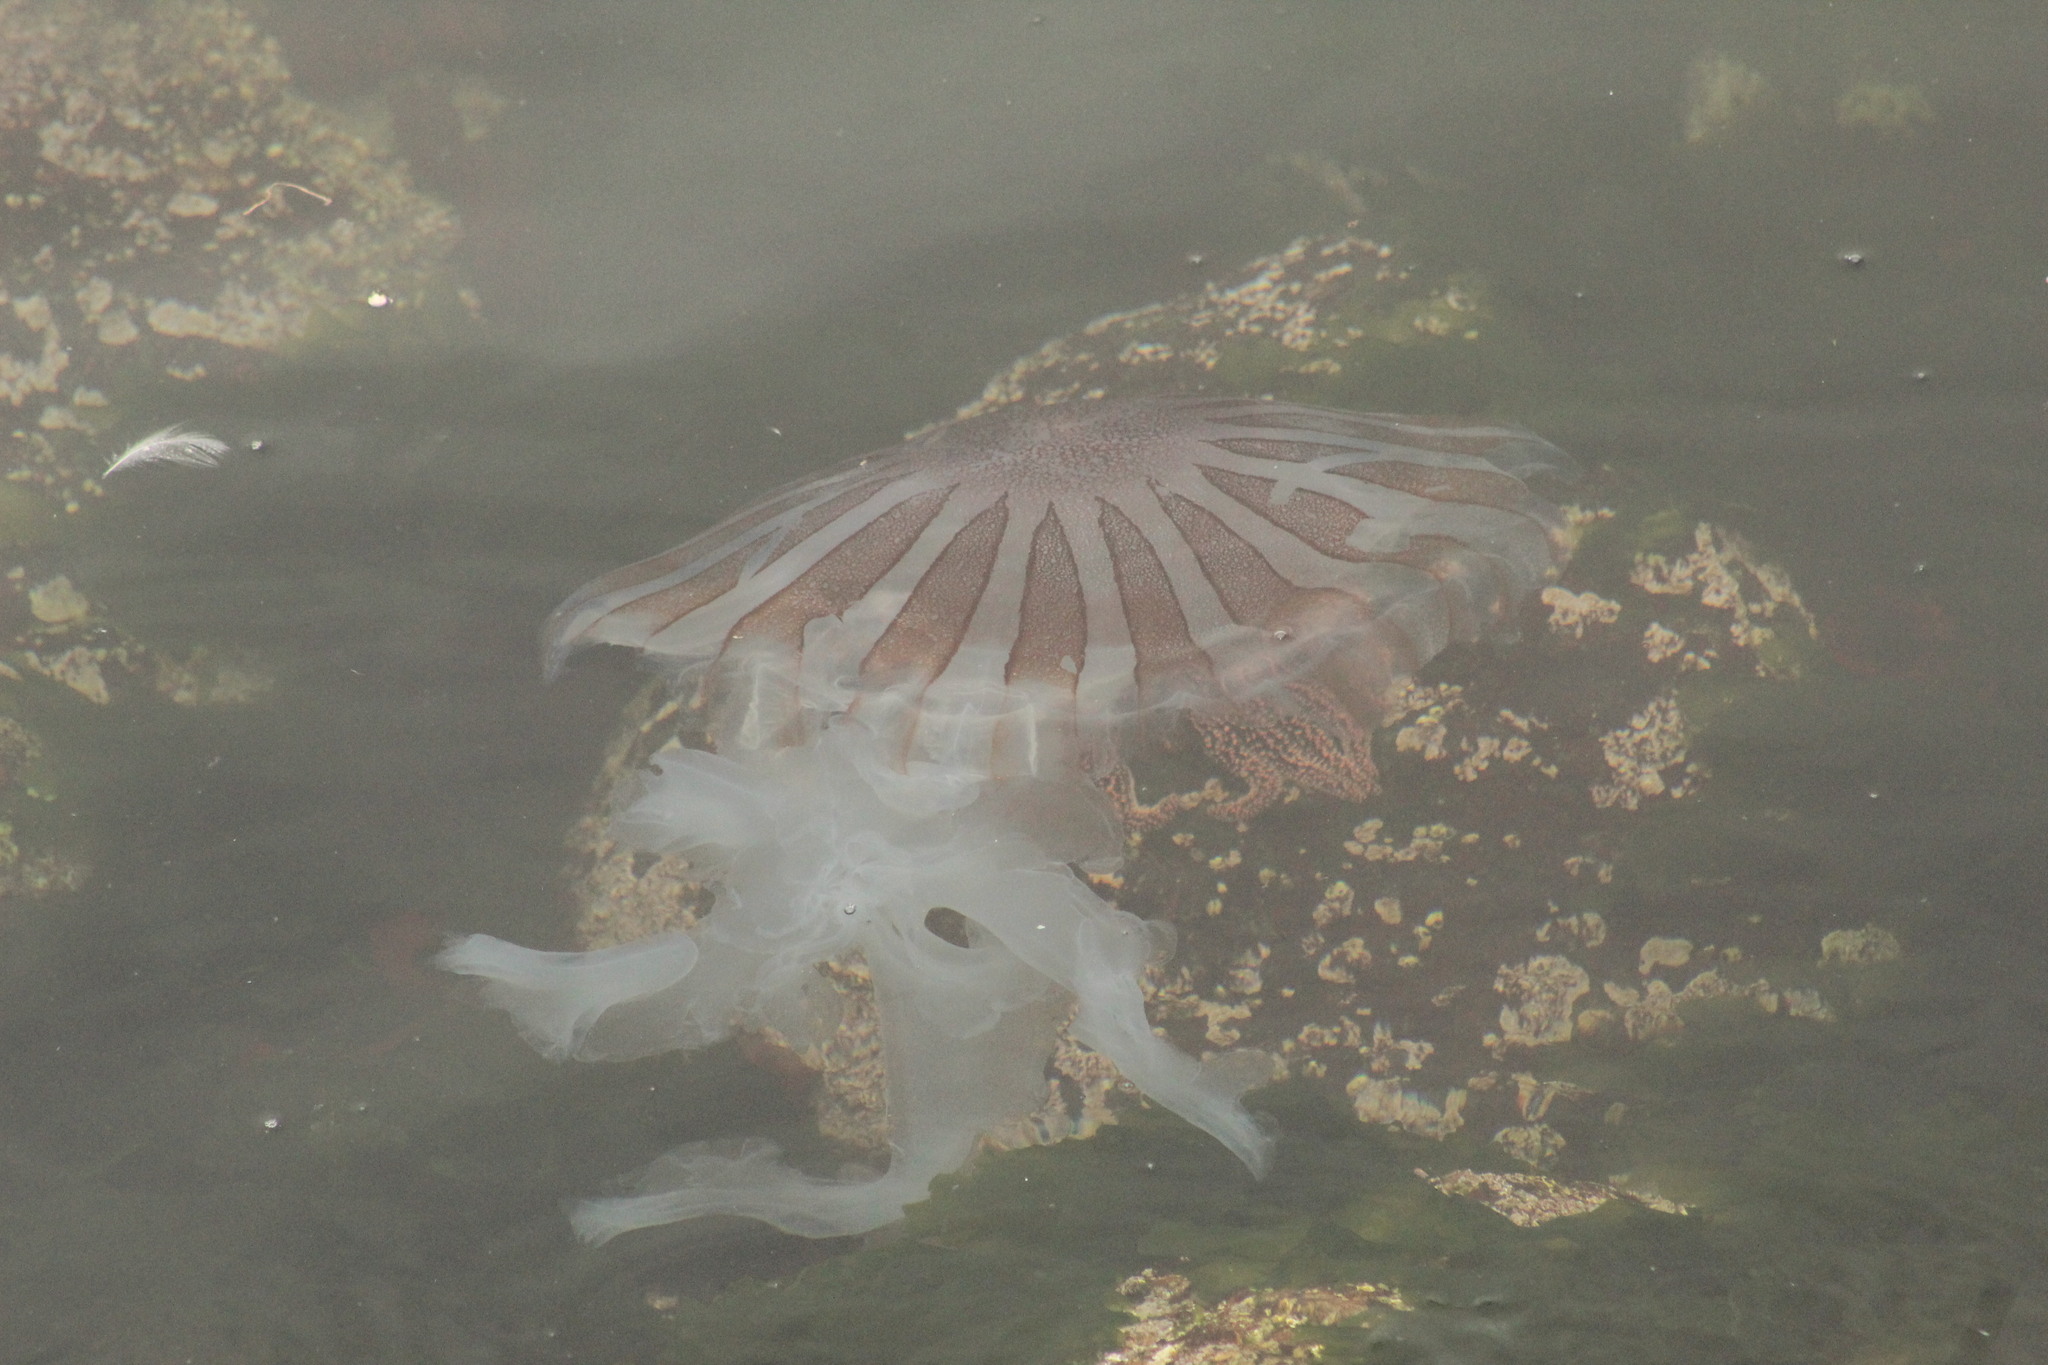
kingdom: Animalia
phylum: Cnidaria
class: Scyphozoa
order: Semaeostomeae
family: Pelagiidae
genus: Chrysaora
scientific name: Chrysaora plocamia
